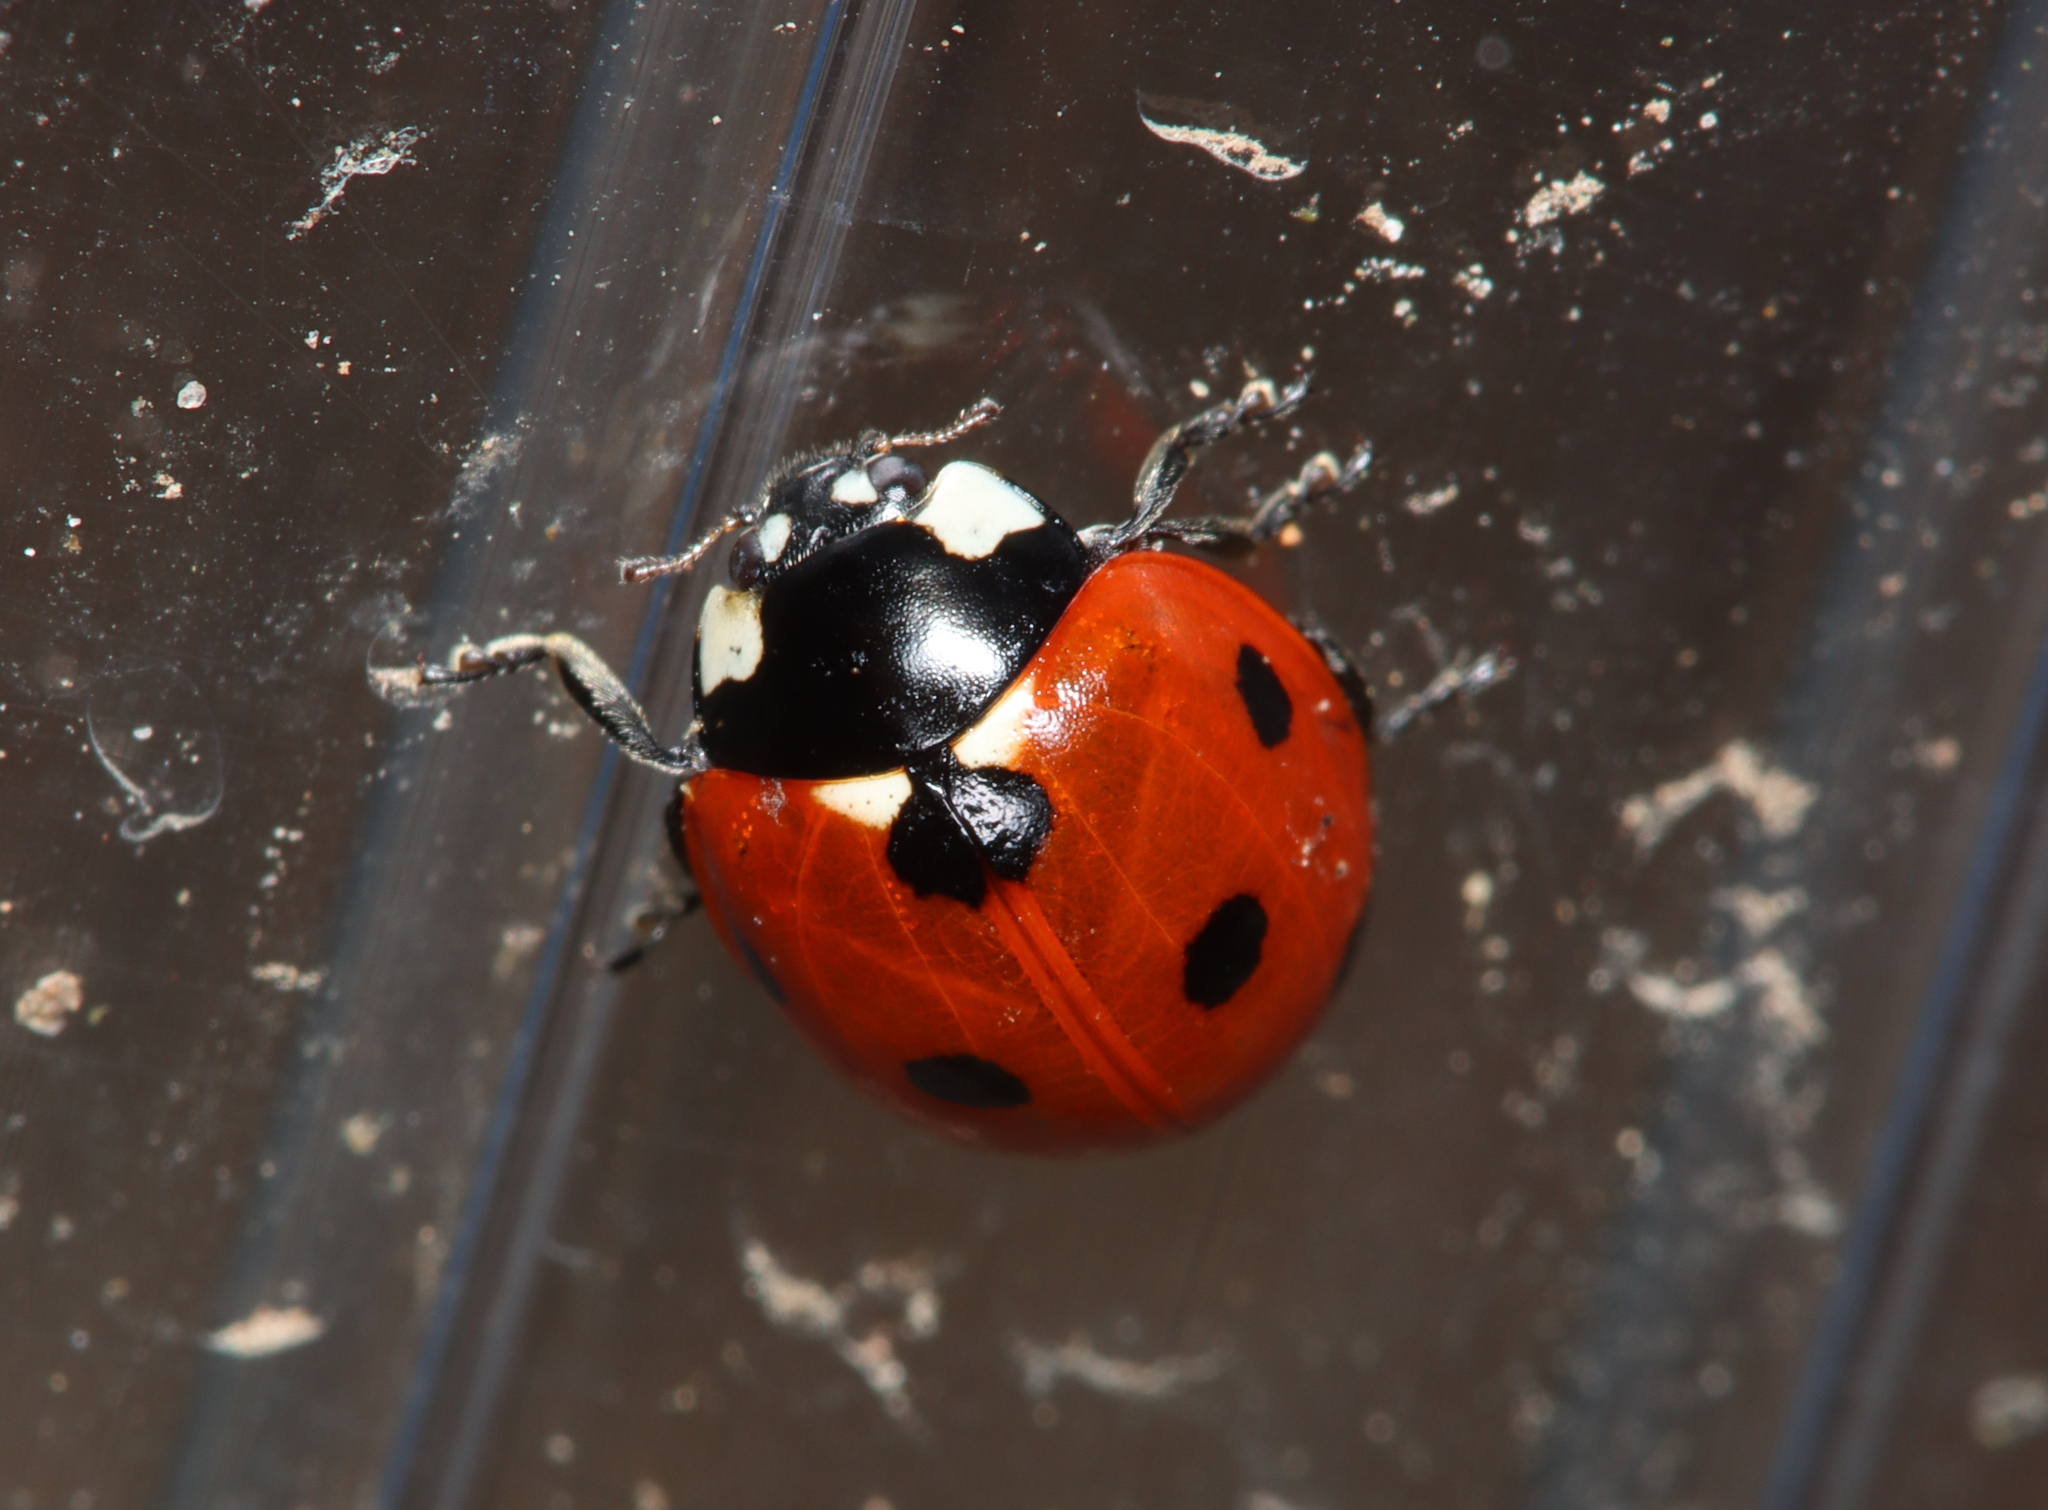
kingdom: Animalia
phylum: Arthropoda
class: Insecta
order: Coleoptera
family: Coccinellidae
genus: Coccinella
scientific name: Coccinella septempunctata
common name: Sevenspotted lady beetle
